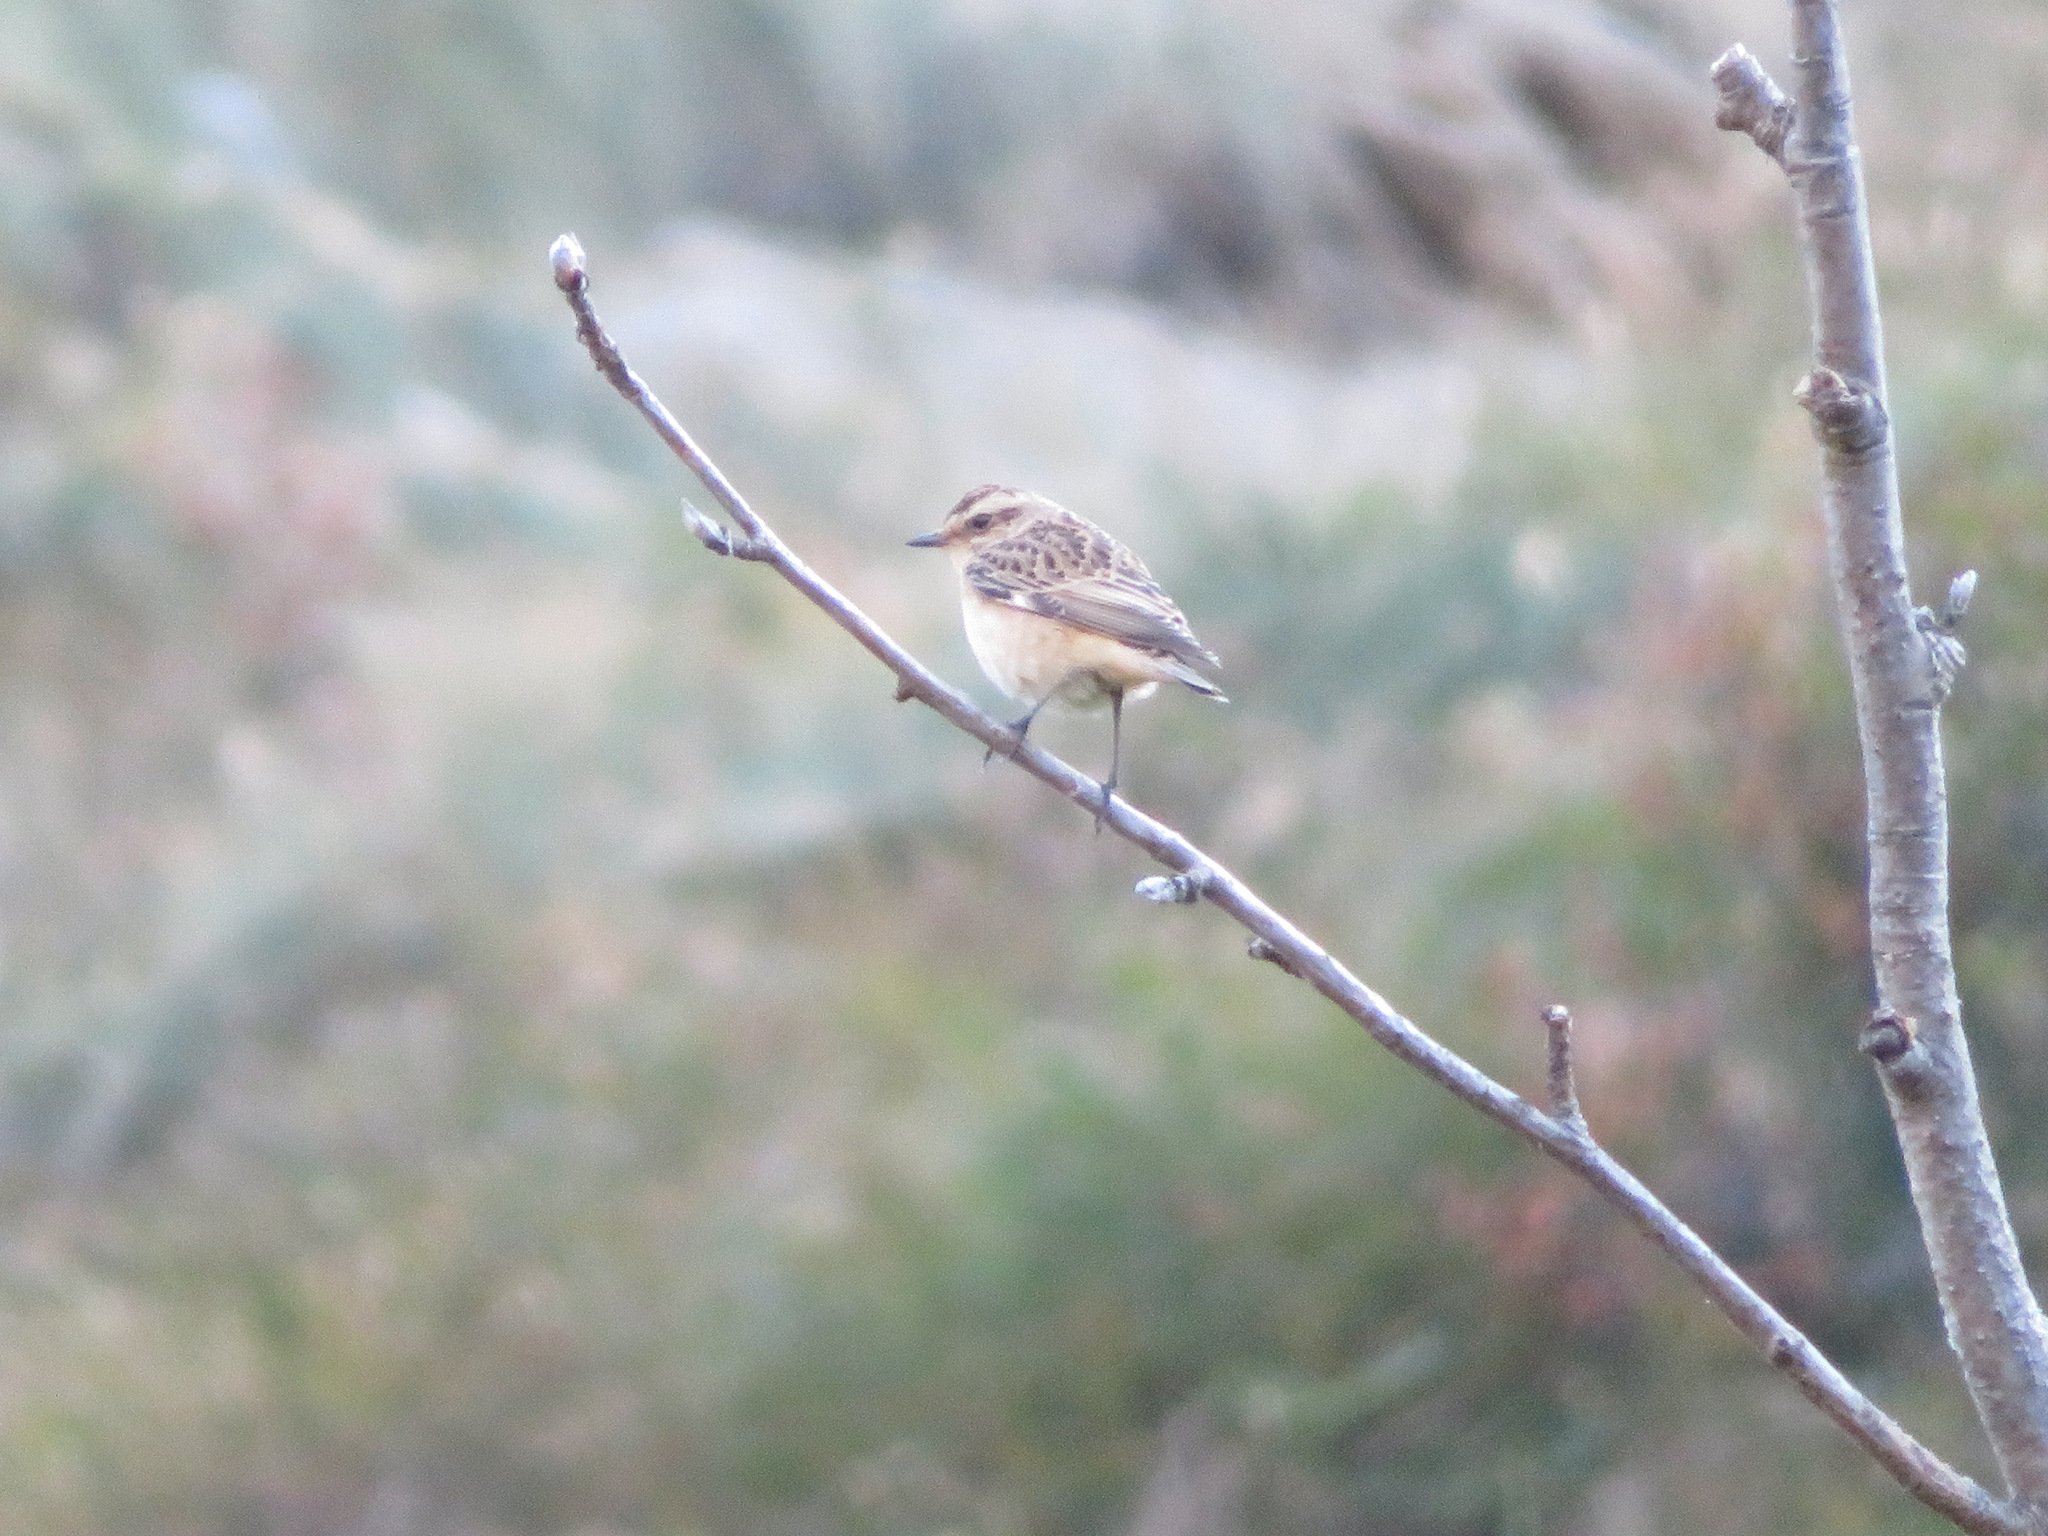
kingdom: Animalia
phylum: Chordata
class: Aves
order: Passeriformes
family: Muscicapidae
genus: Saxicola
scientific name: Saxicola rubetra
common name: Whinchat
